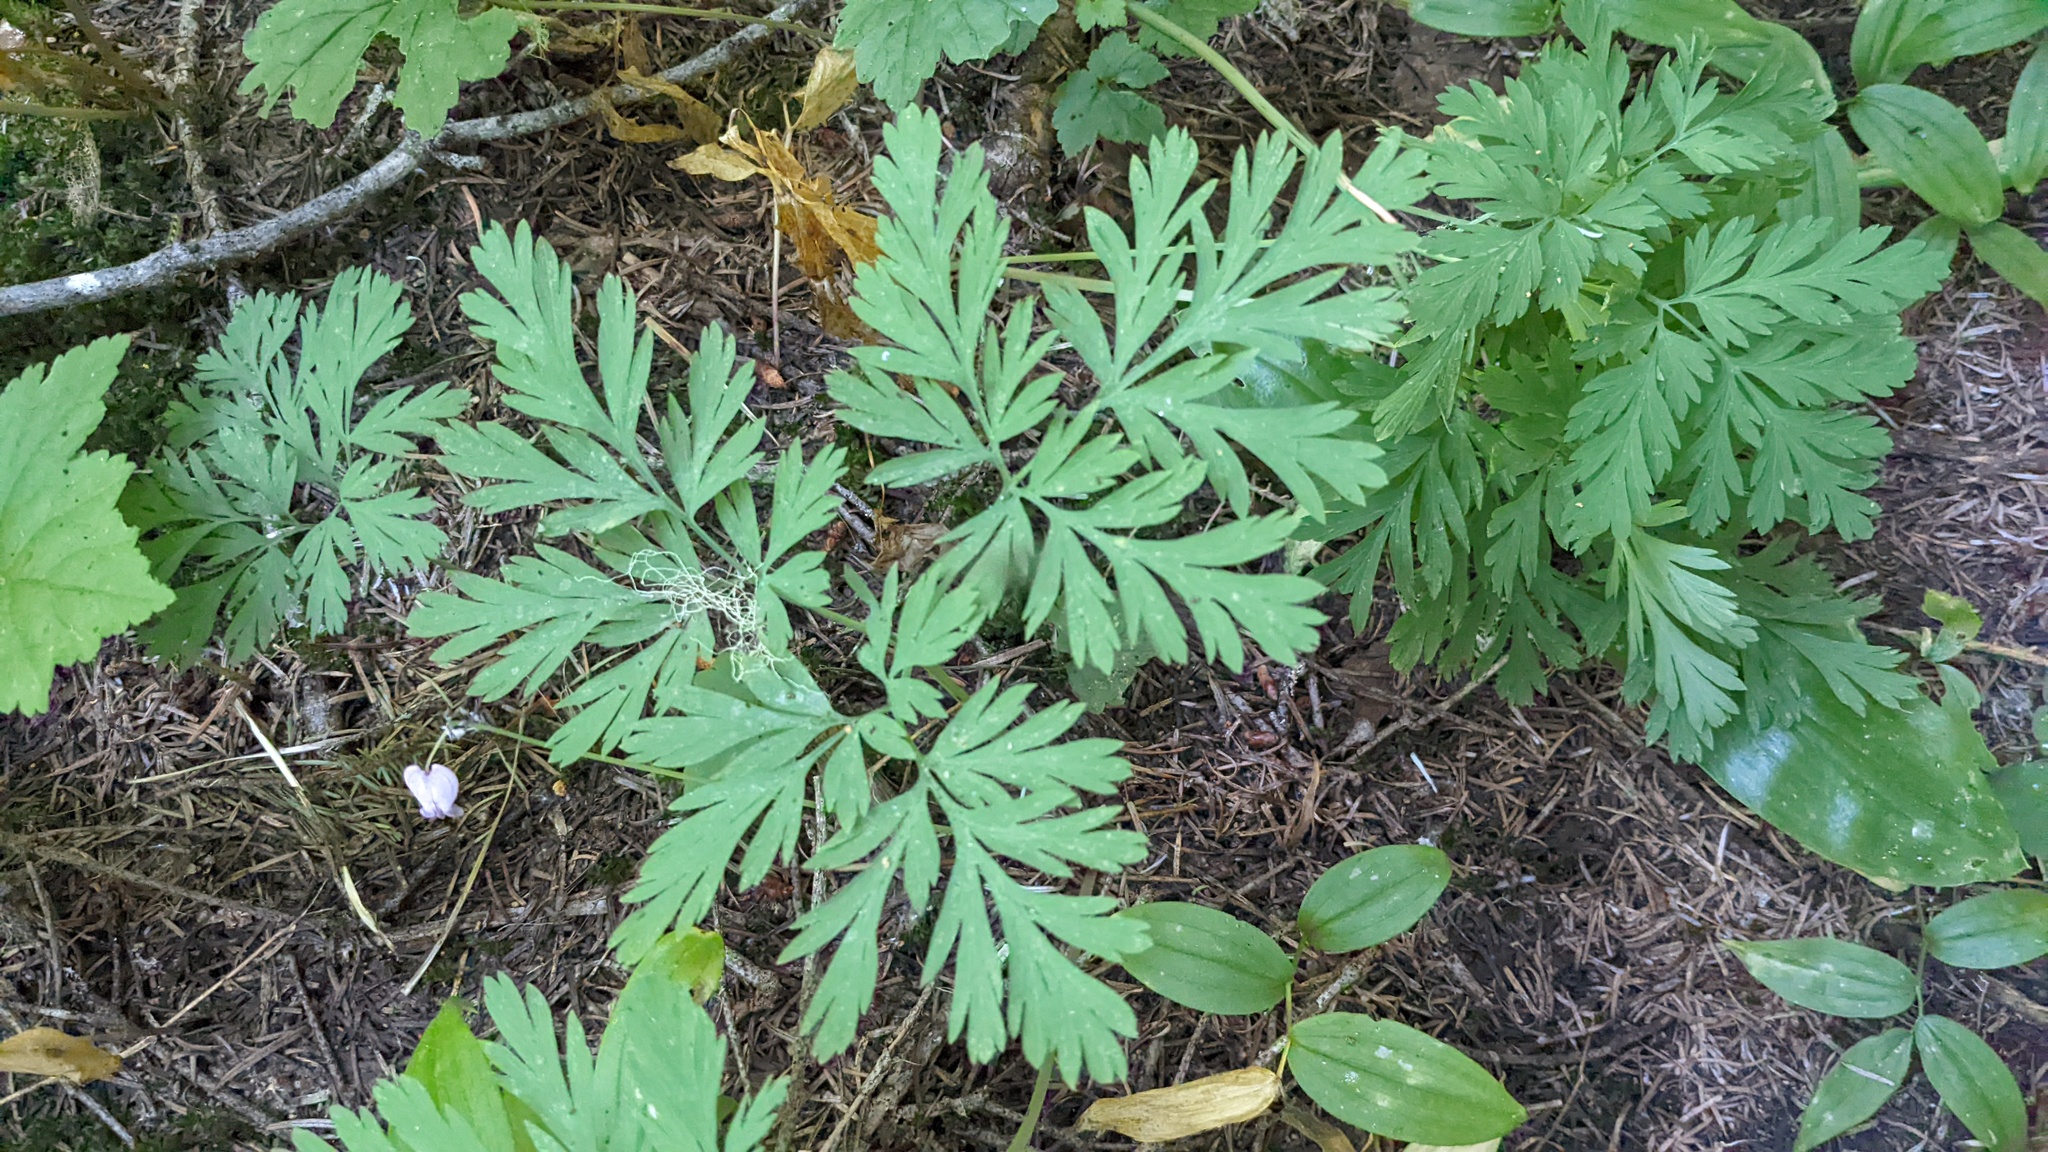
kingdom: Plantae
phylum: Tracheophyta
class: Magnoliopsida
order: Ranunculales
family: Papaveraceae
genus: Dicentra
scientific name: Dicentra formosa
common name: Bleeding-heart
